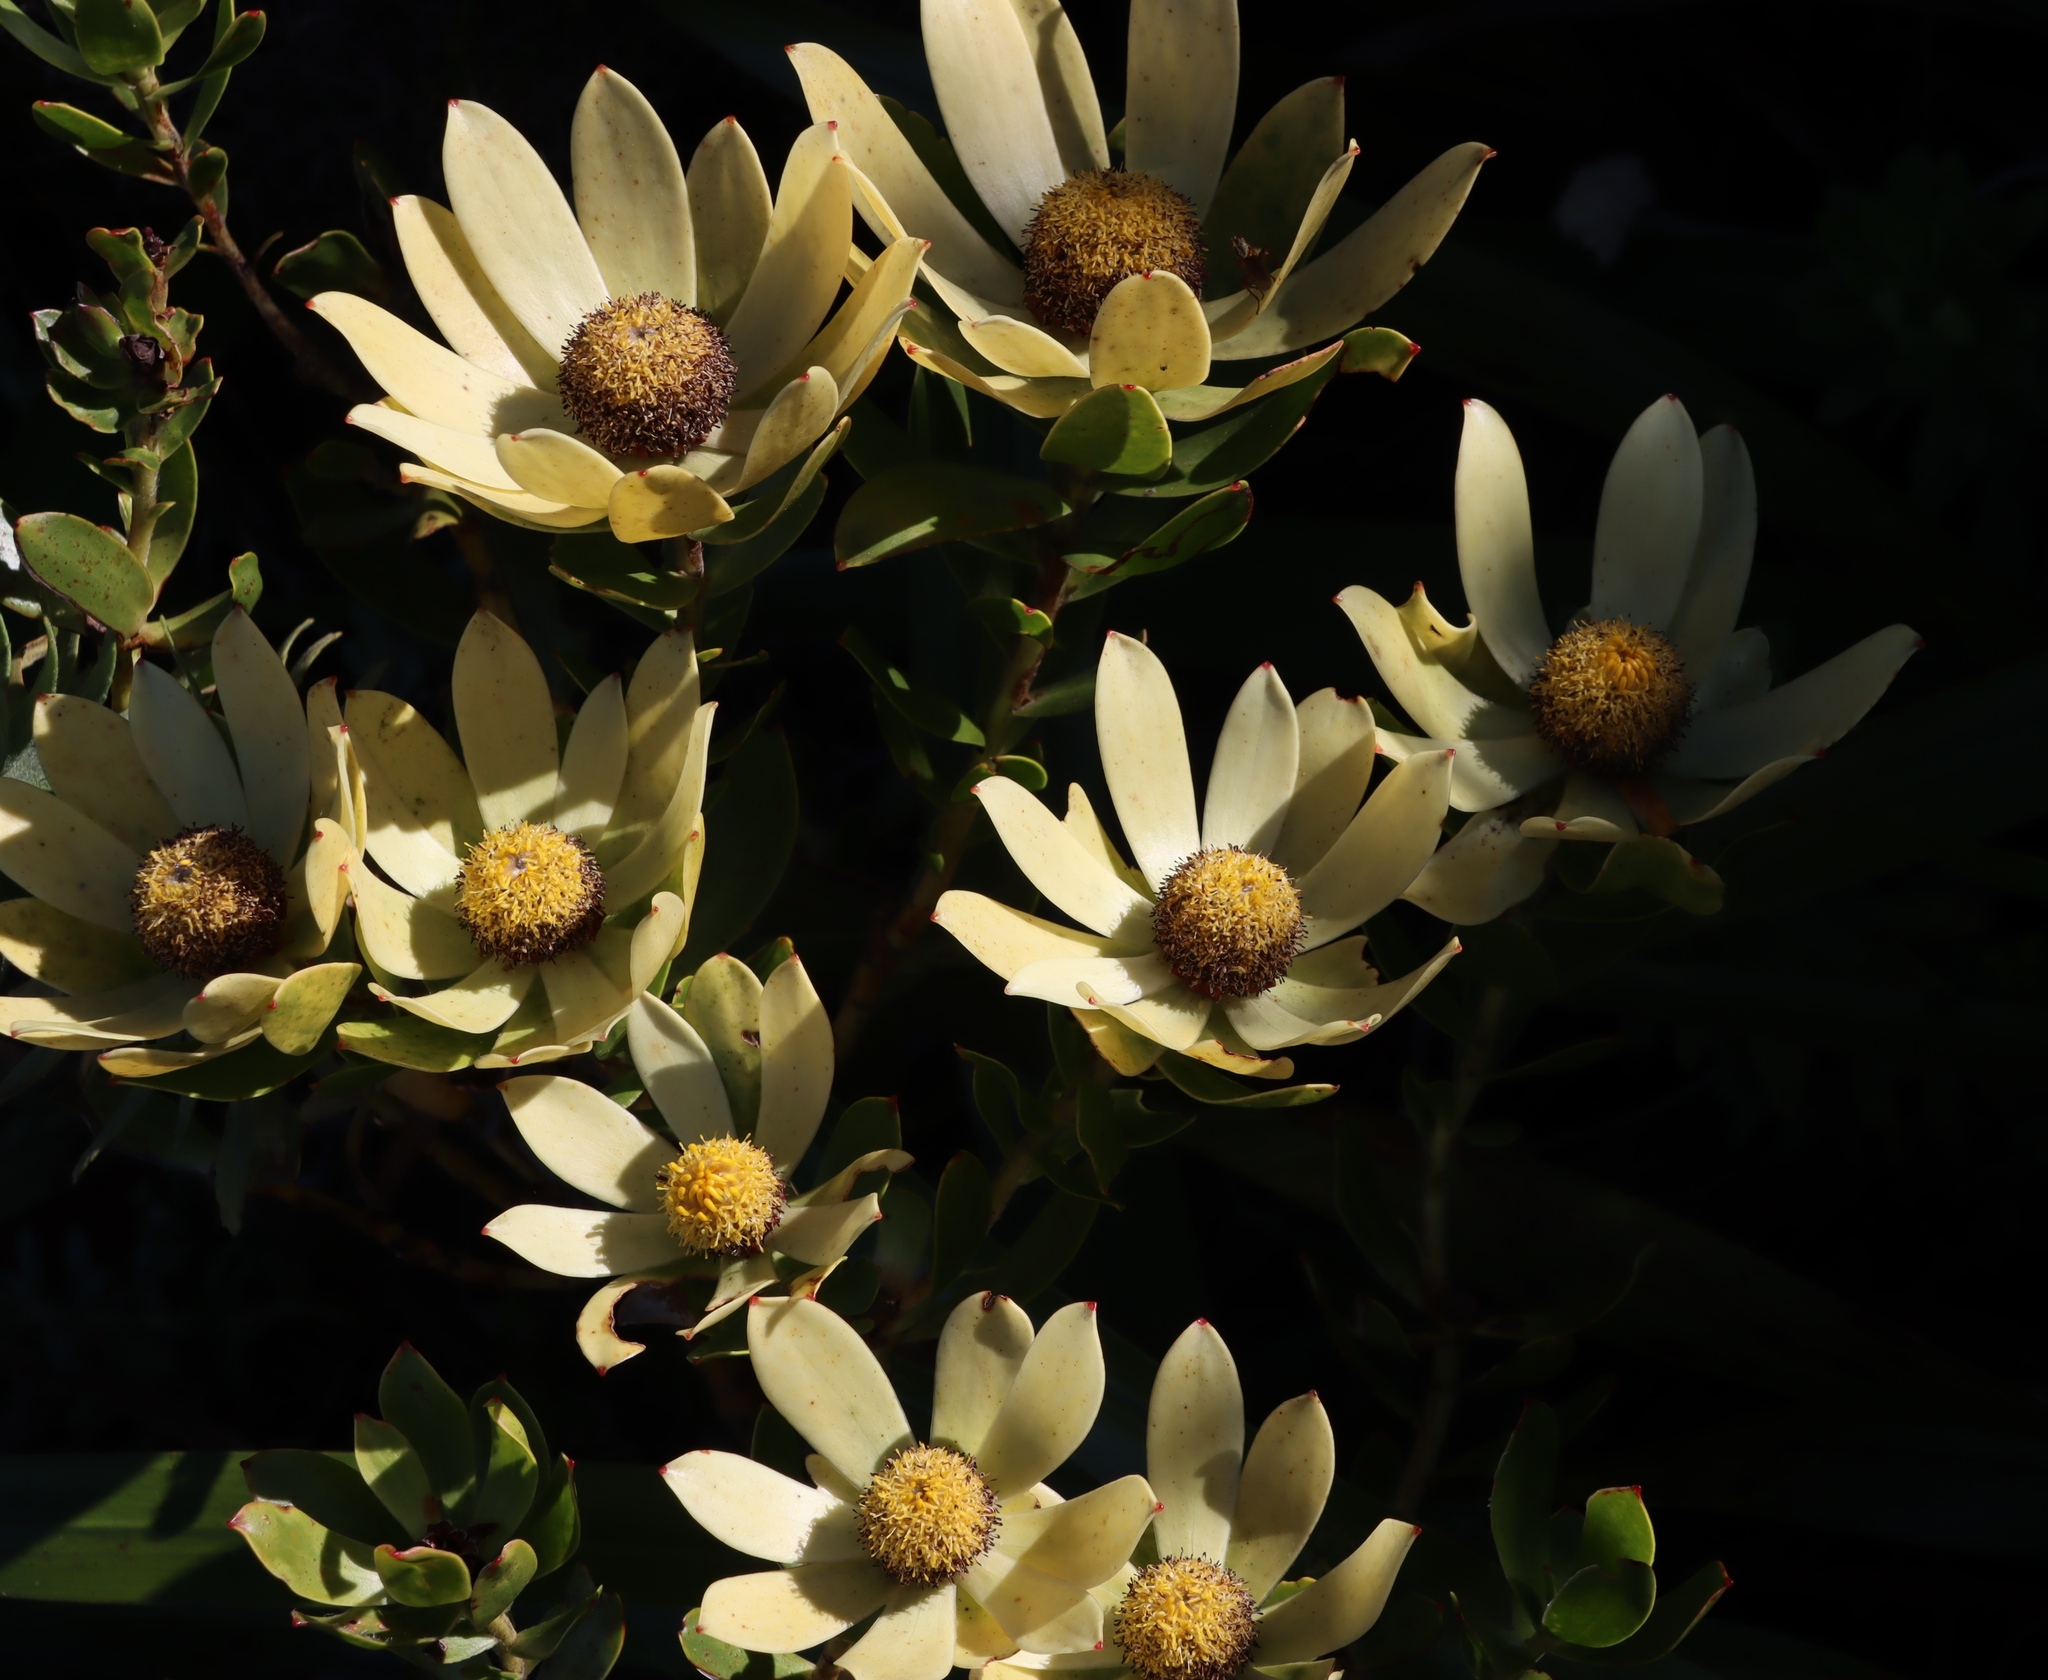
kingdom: Plantae
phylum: Tracheophyta
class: Magnoliopsida
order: Proteales
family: Proteaceae
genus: Leucadendron
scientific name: Leucadendron strobilinum
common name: Mountain rose
